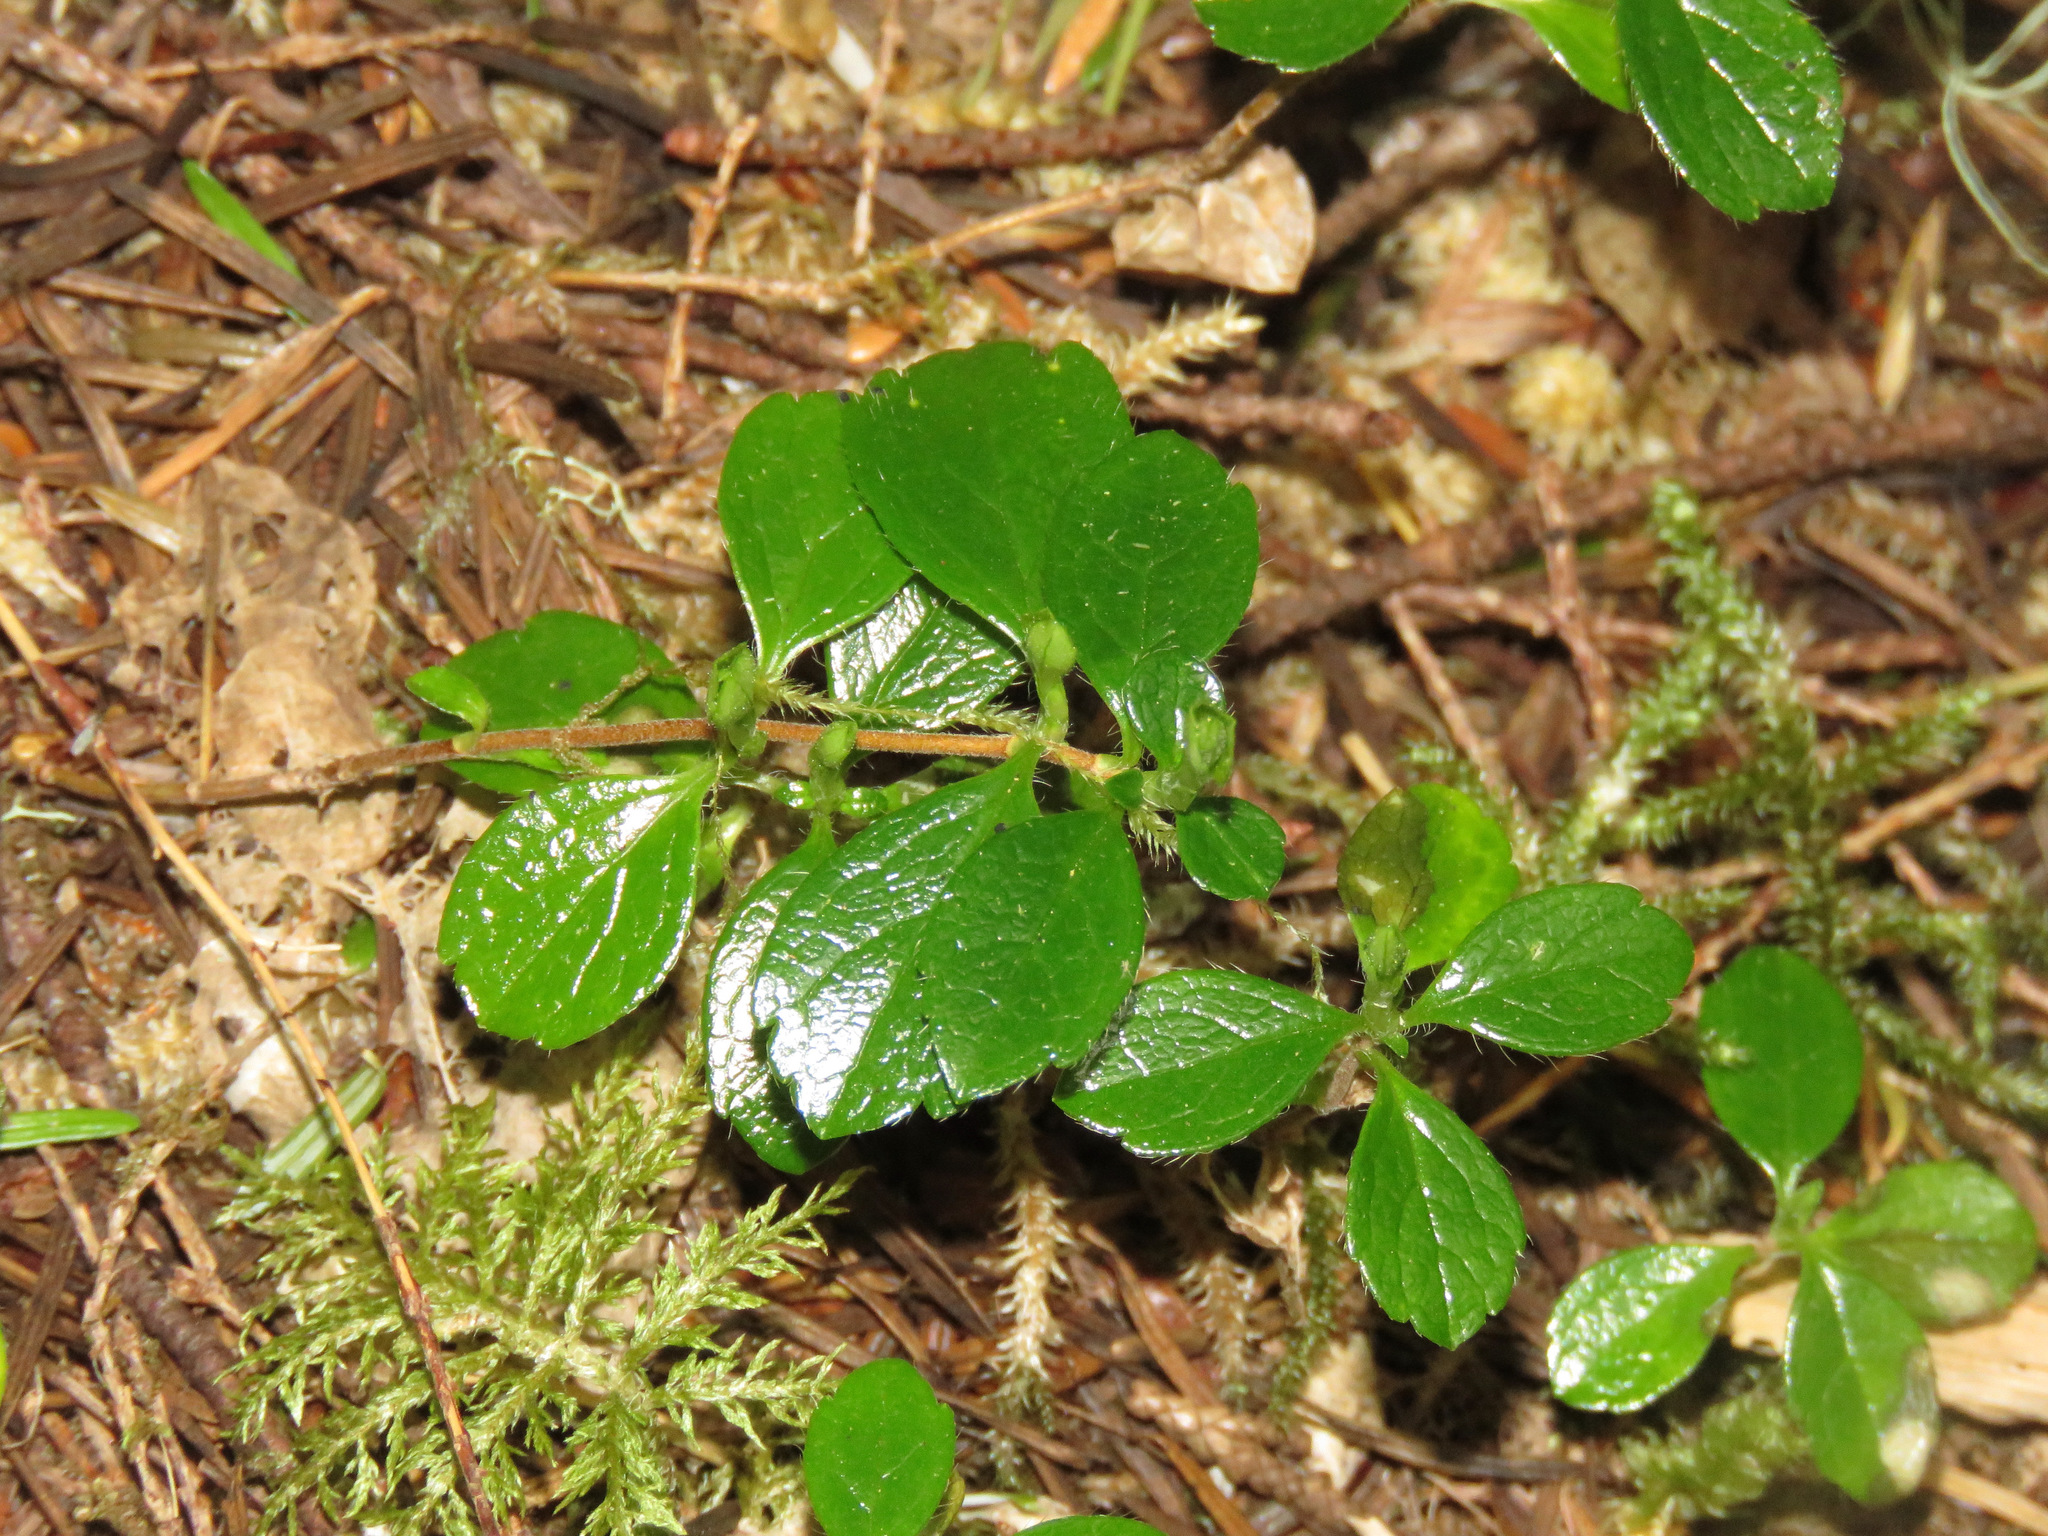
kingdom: Plantae
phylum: Tracheophyta
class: Magnoliopsida
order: Dipsacales
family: Caprifoliaceae
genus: Linnaea
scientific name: Linnaea borealis
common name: Twinflower
